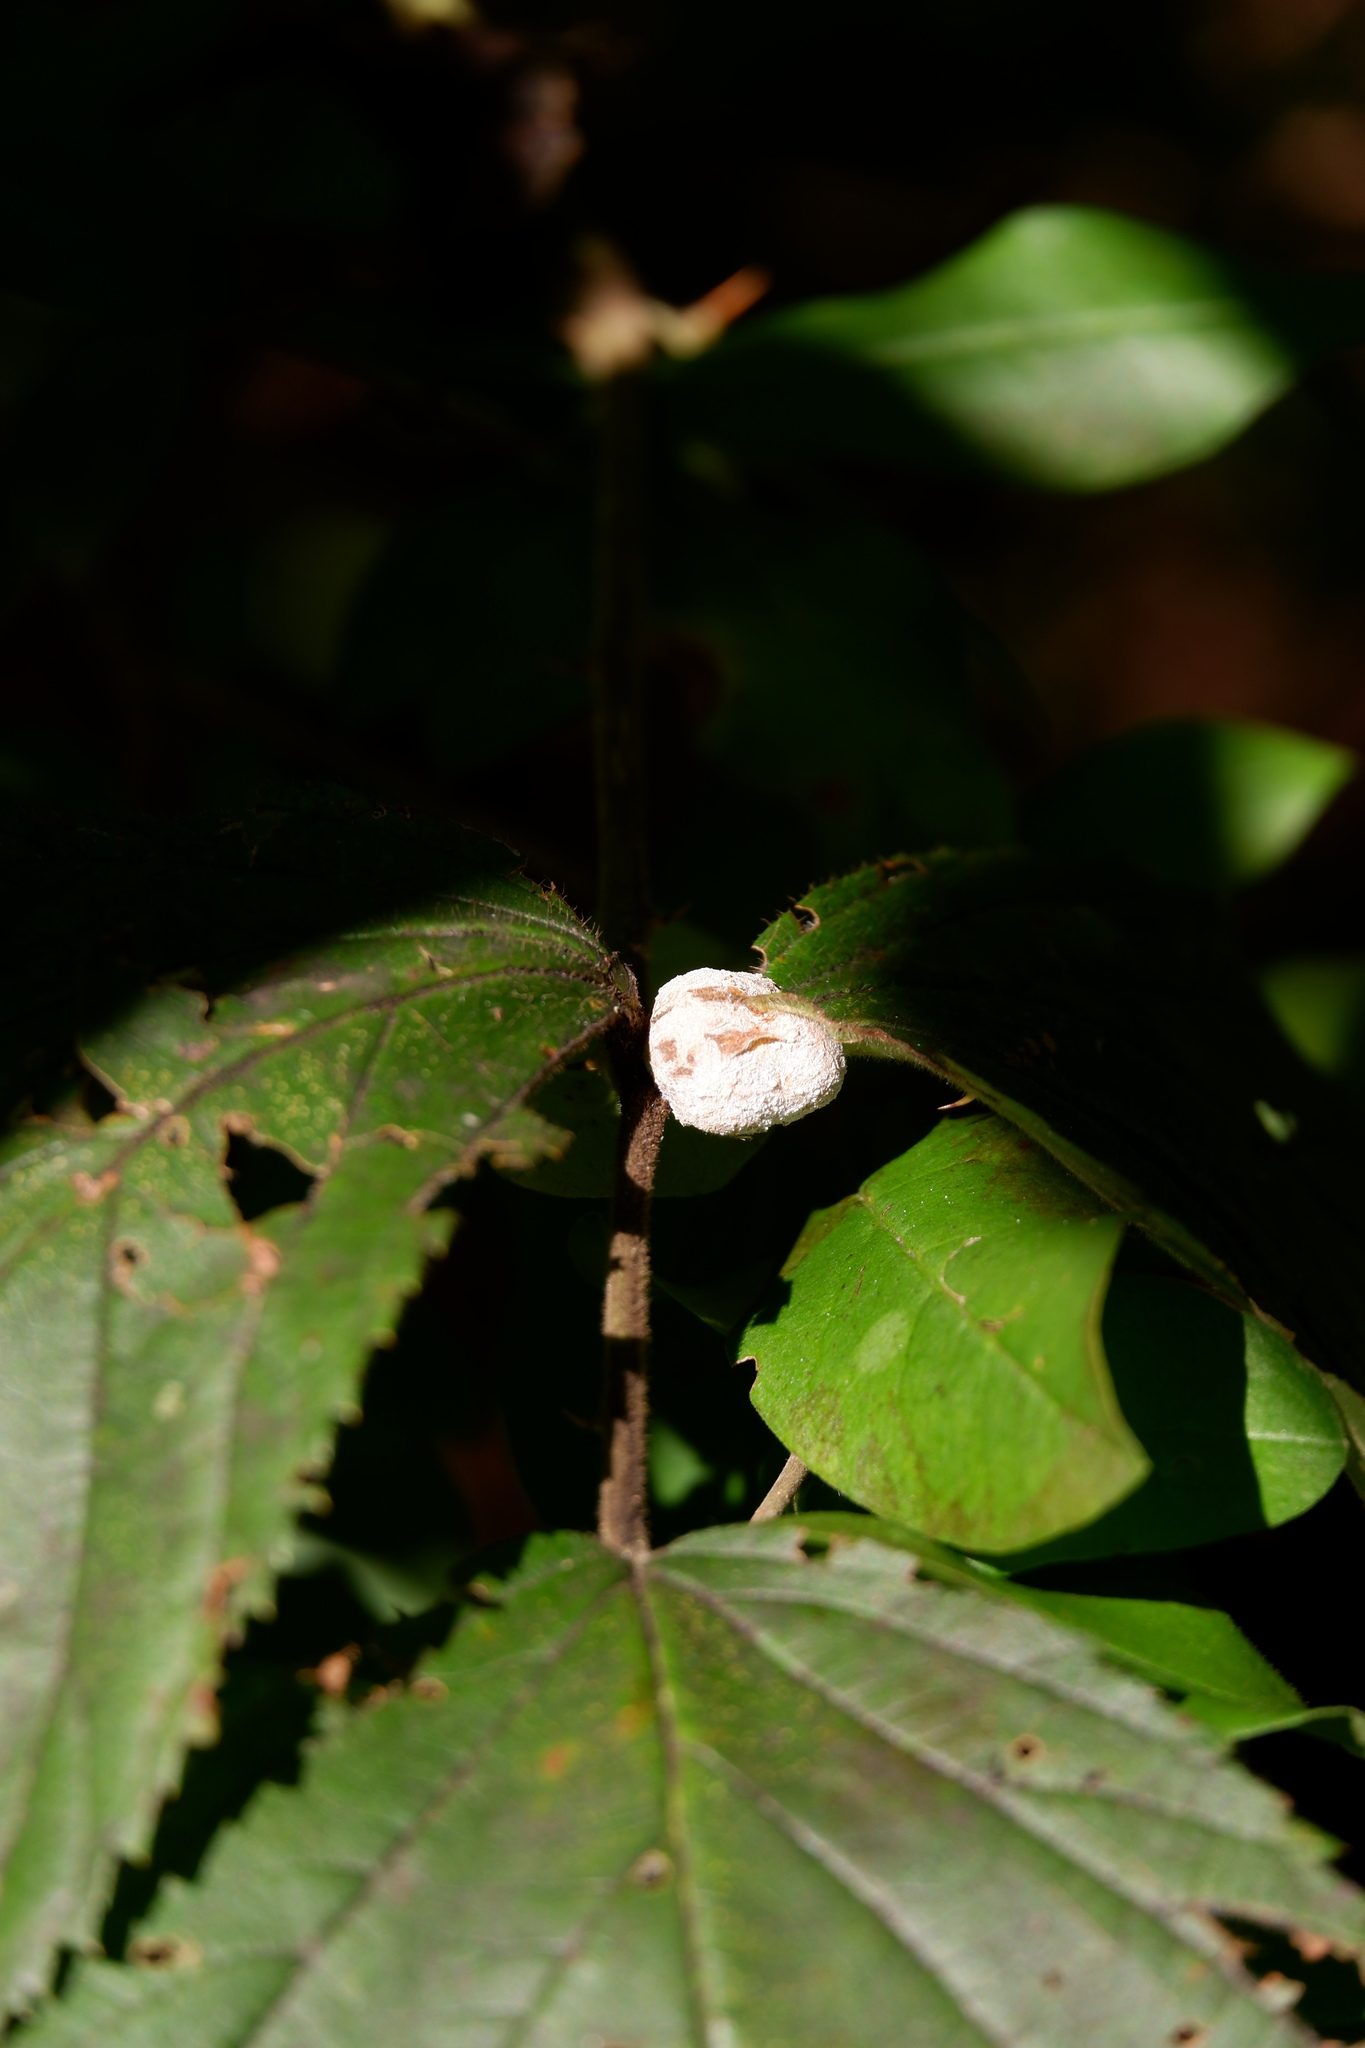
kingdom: Animalia
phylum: Arthropoda
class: Insecta
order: Diptera
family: Cecidomyiidae
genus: Neolasioptera
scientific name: Neolasioptera farinosa
